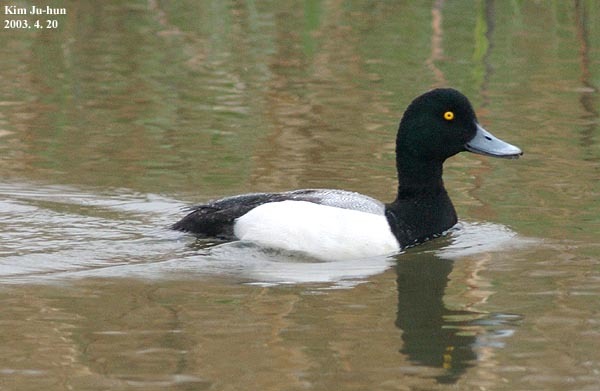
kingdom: Animalia
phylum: Chordata
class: Aves
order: Anseriformes
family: Anatidae
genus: Aythya
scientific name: Aythya marila
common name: Greater scaup
